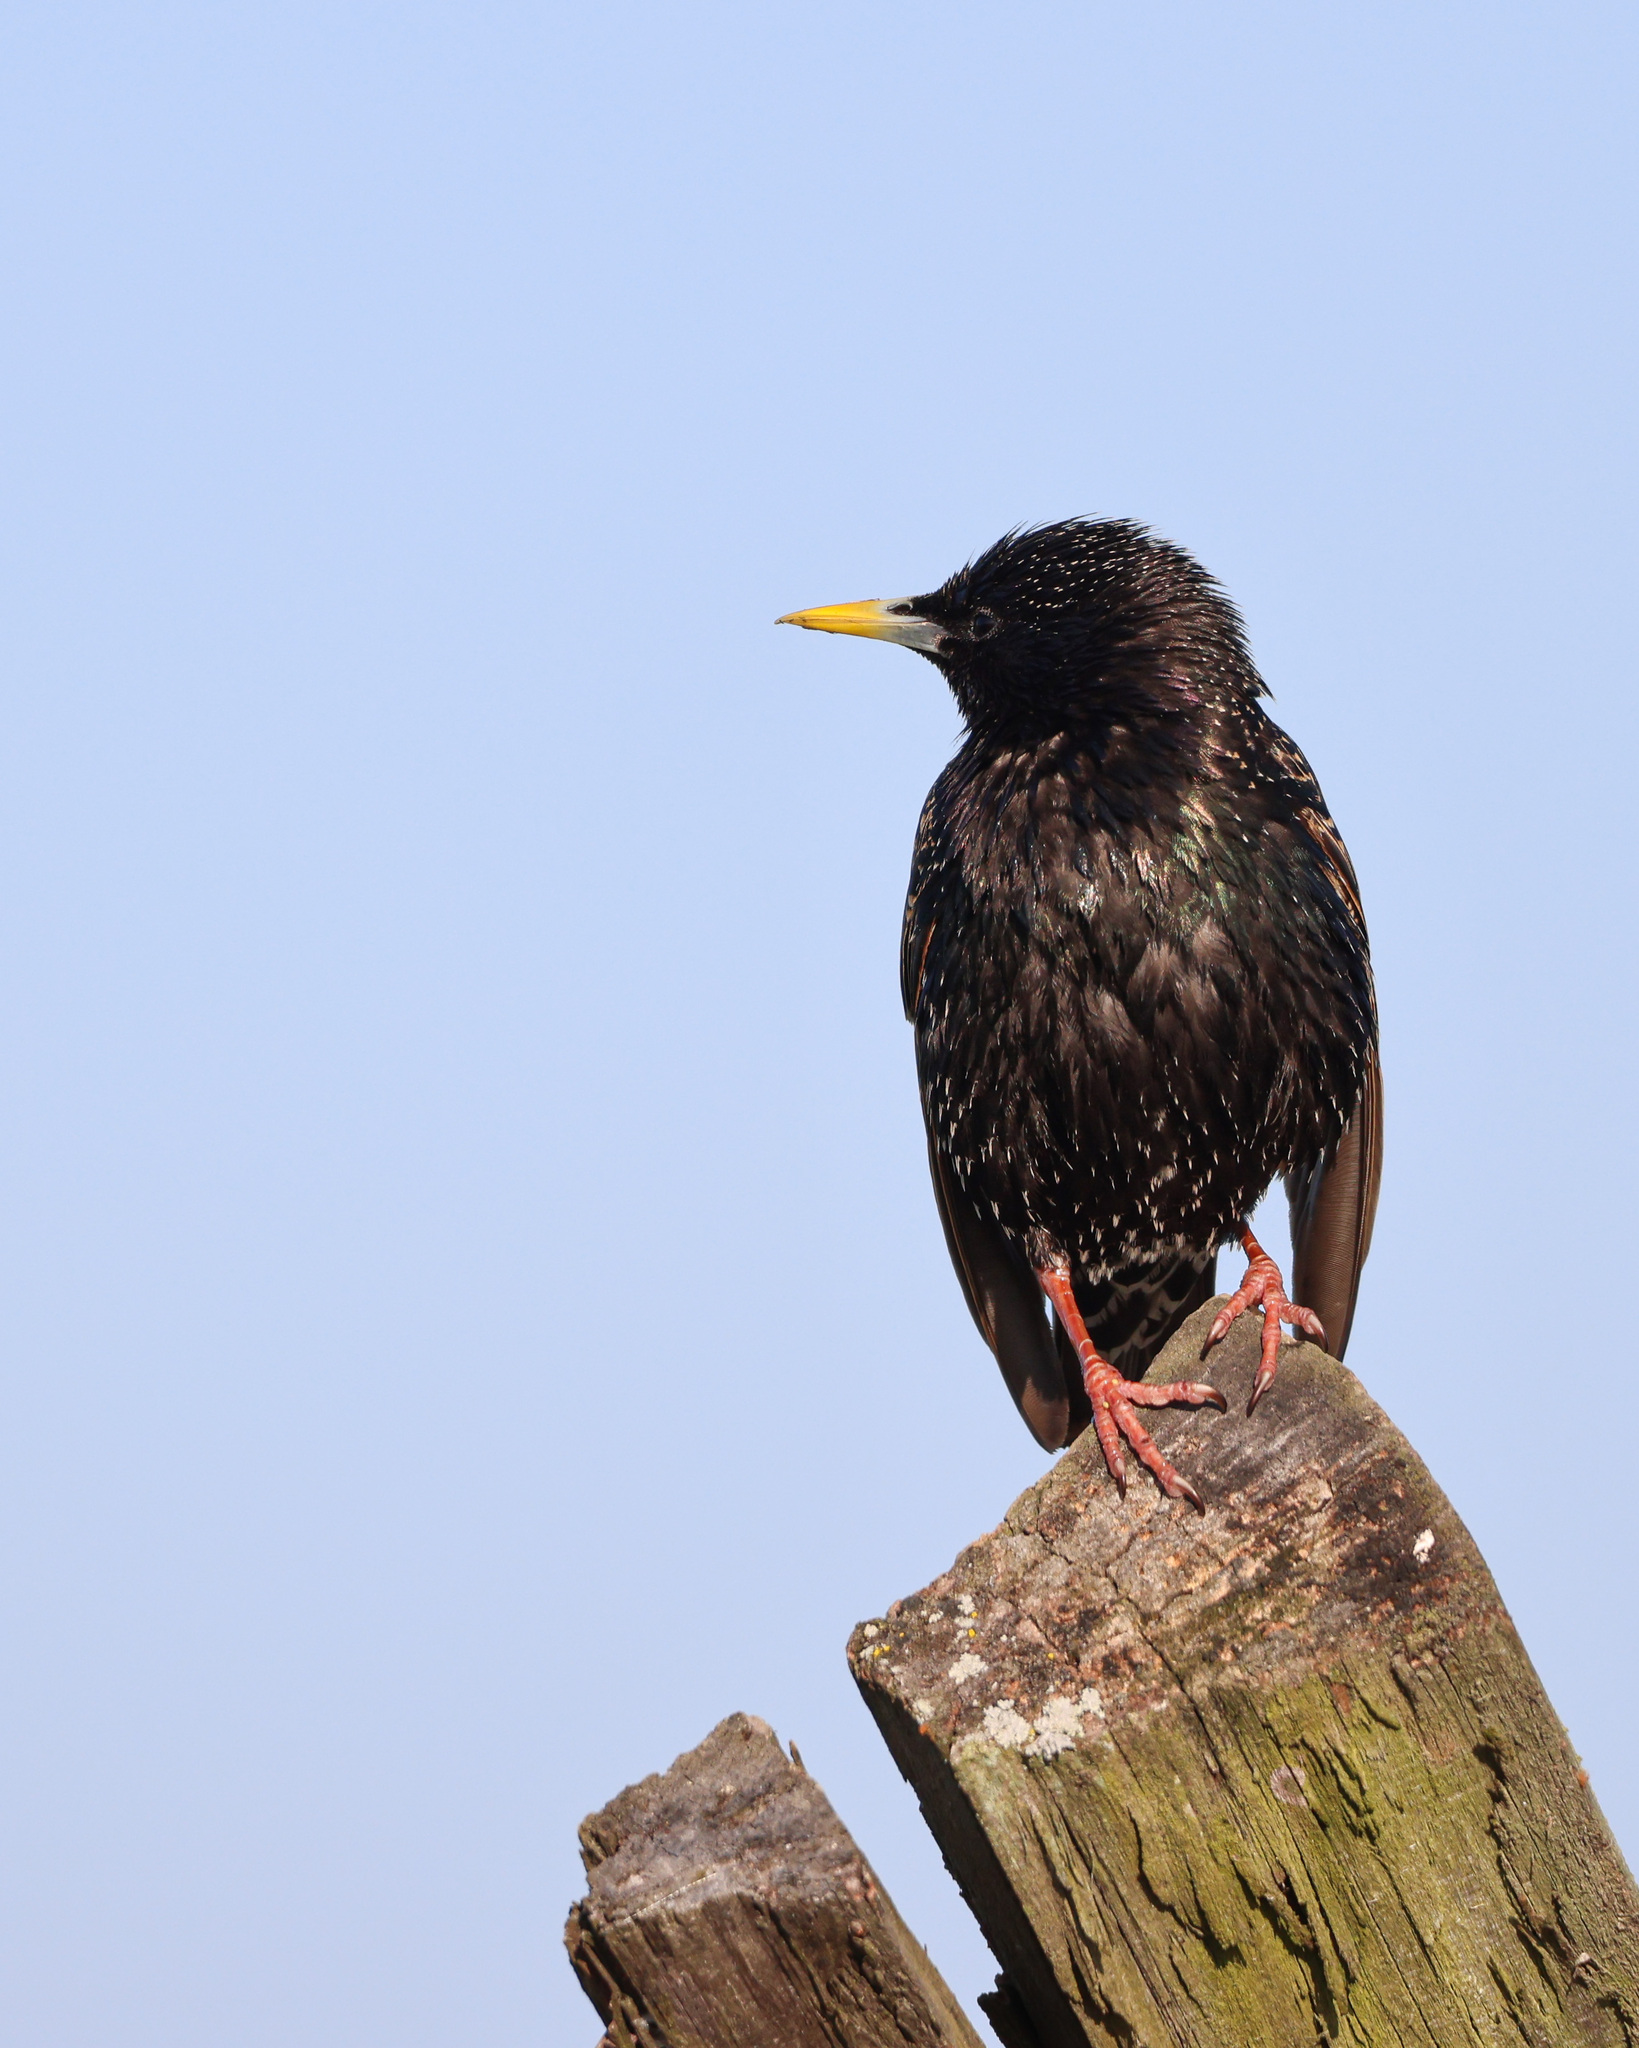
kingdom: Animalia
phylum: Chordata
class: Aves
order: Passeriformes
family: Sturnidae
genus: Sturnus
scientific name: Sturnus vulgaris
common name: Common starling
